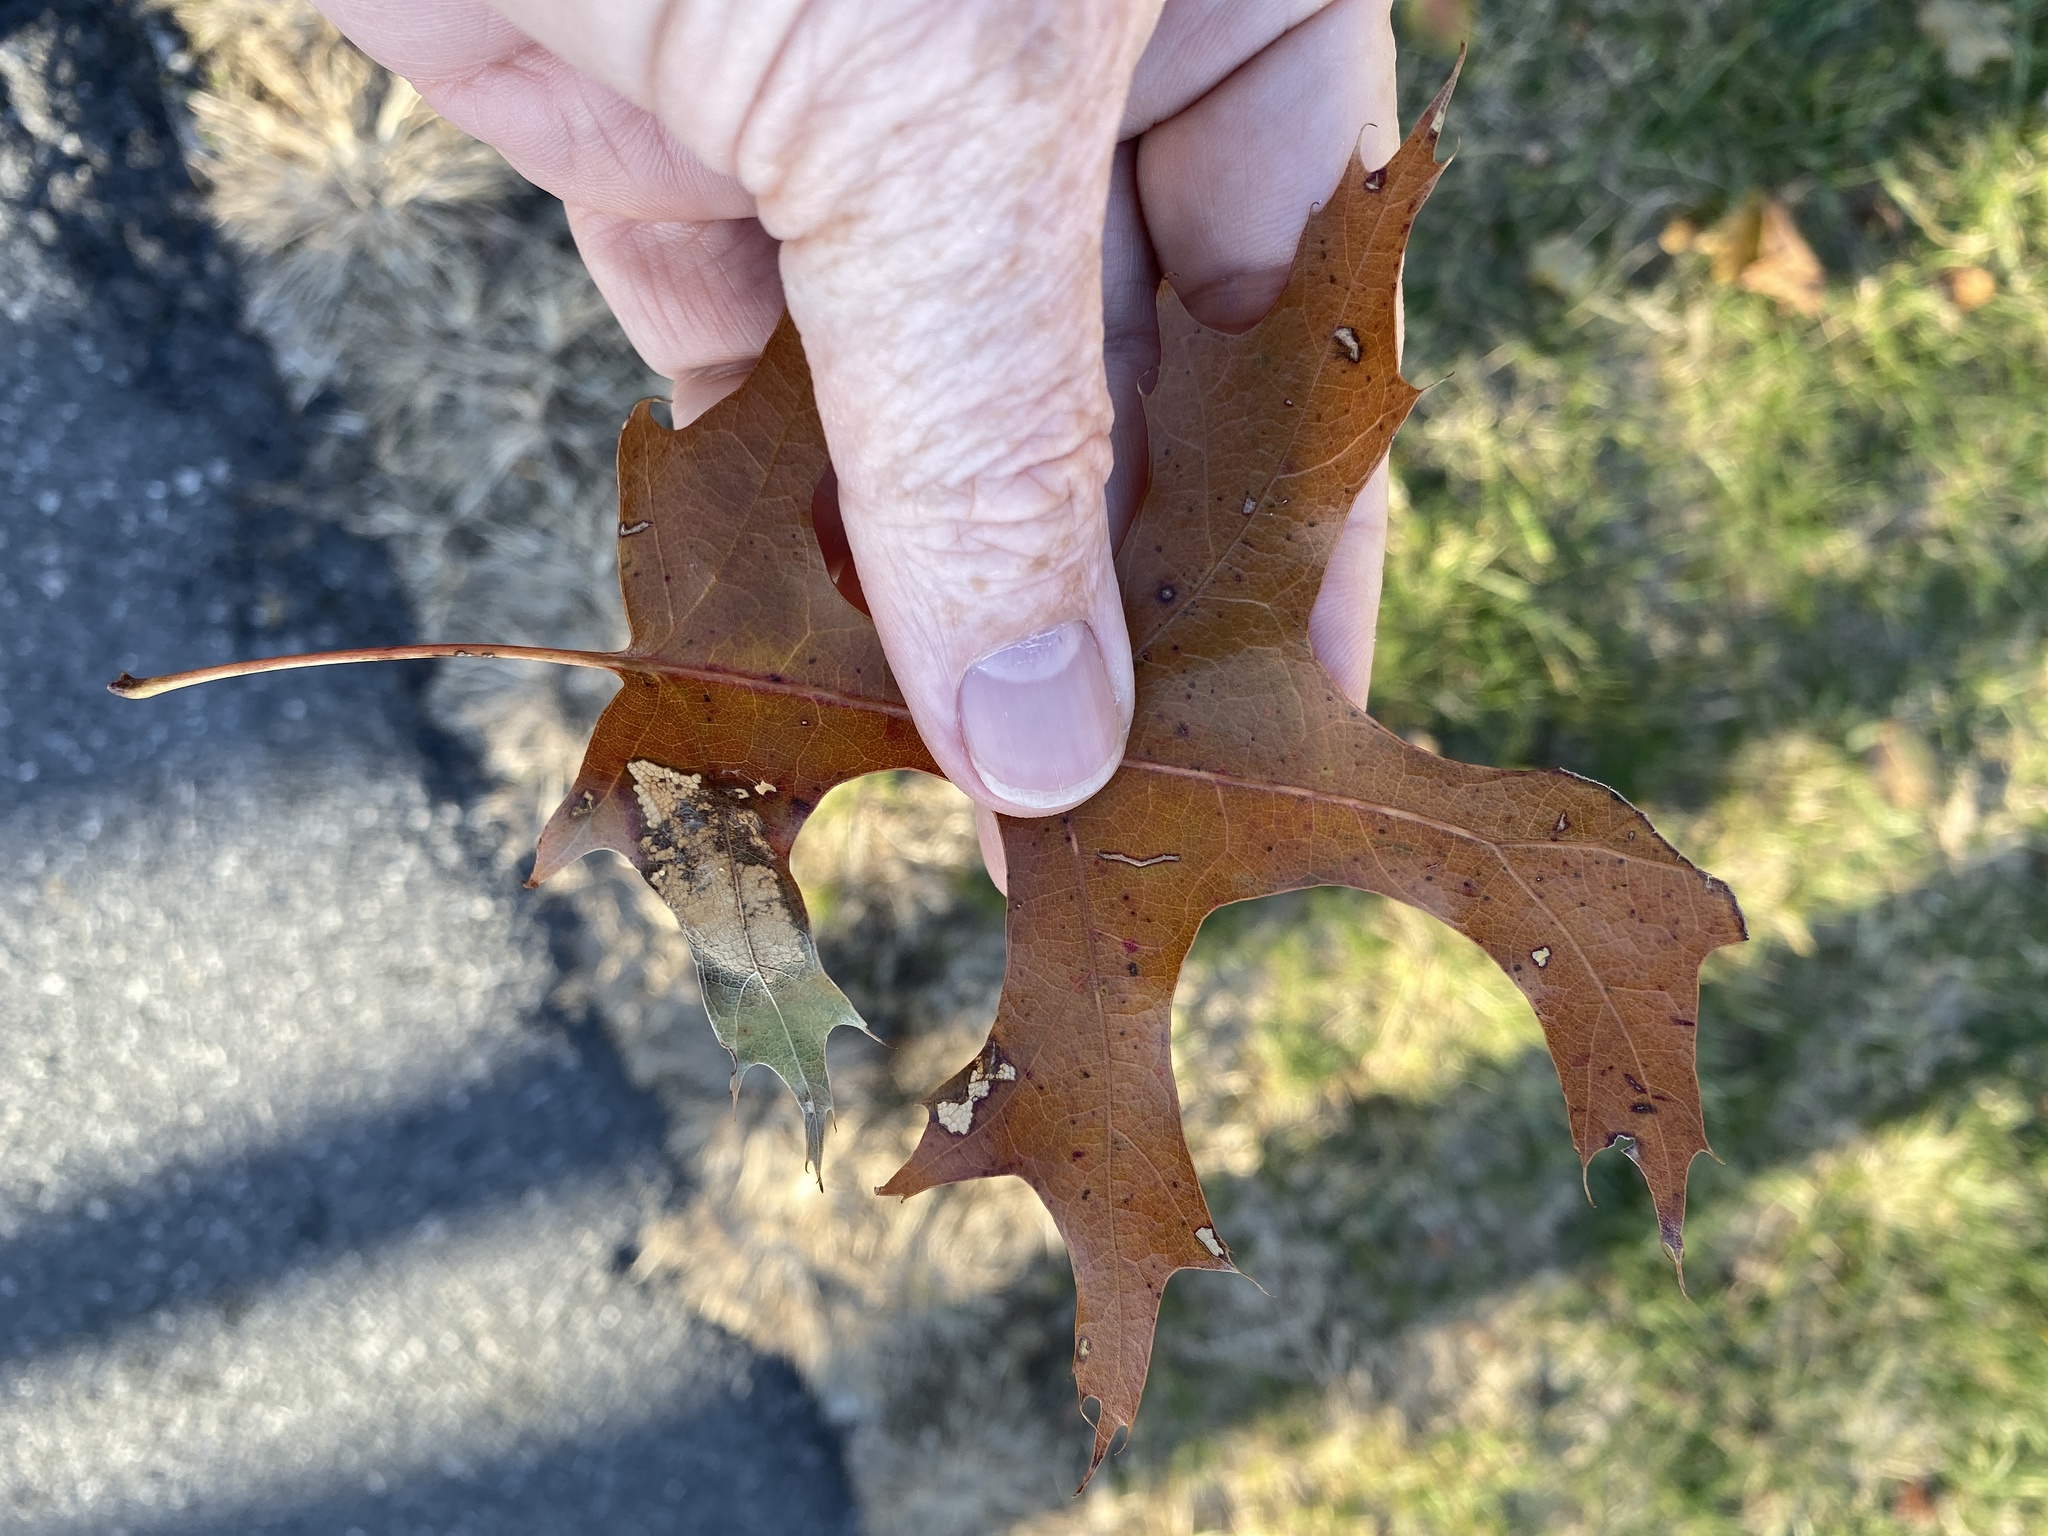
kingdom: Plantae
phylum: Tracheophyta
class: Magnoliopsida
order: Fagales
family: Fagaceae
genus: Quercus
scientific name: Quercus coccinea
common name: Scarlet oak
